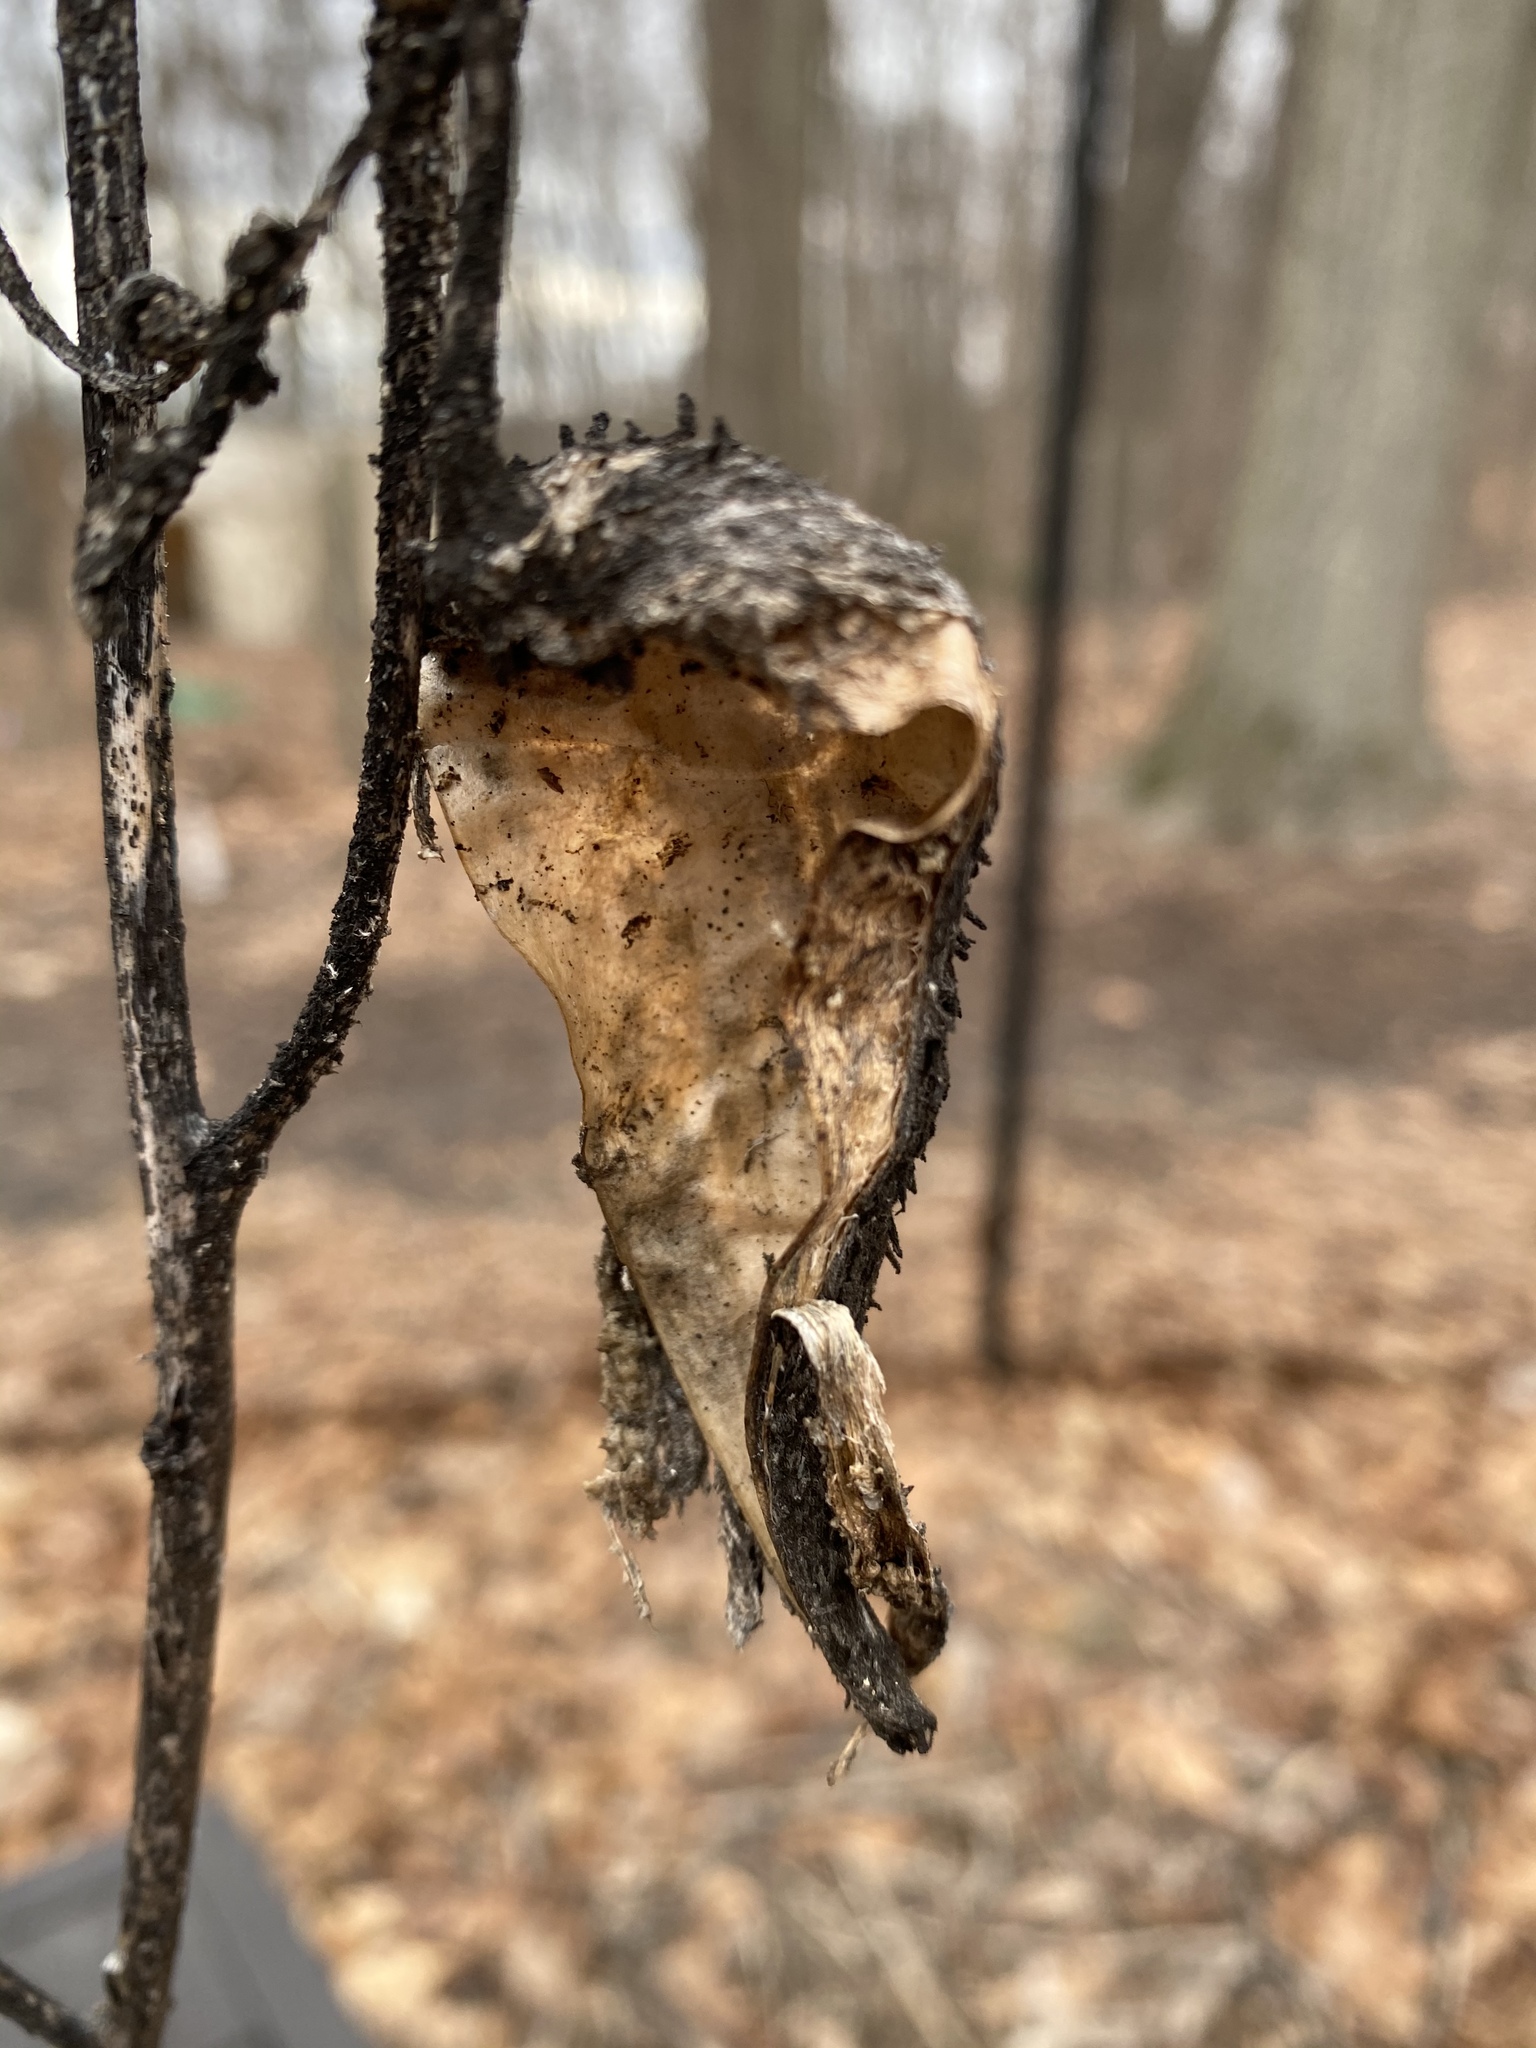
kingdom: Plantae
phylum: Tracheophyta
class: Magnoliopsida
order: Gentianales
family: Apocynaceae
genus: Asclepias
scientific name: Asclepias syriaca
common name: Common milkweed
